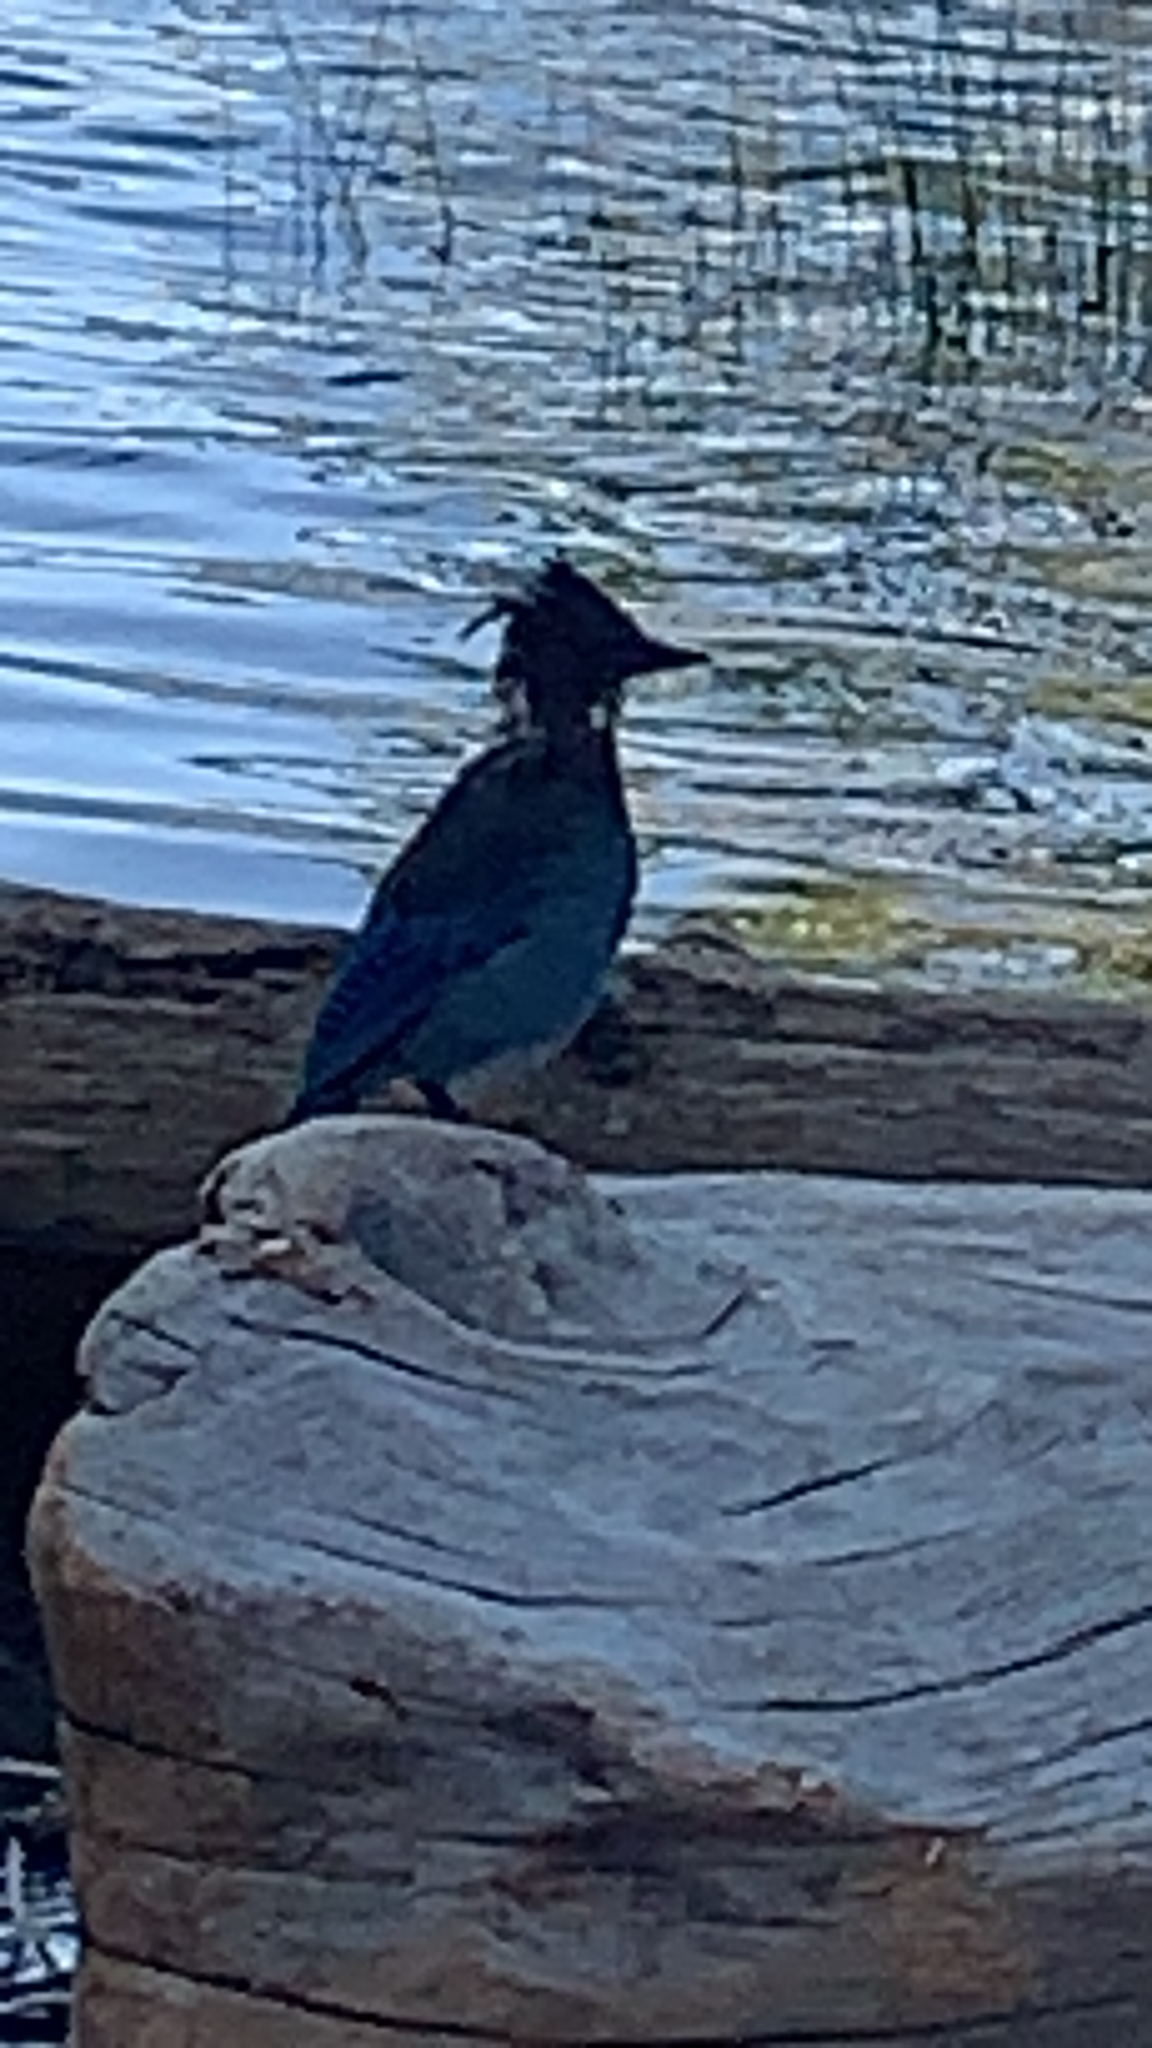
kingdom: Animalia
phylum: Chordata
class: Aves
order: Passeriformes
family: Corvidae
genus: Cyanocitta
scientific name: Cyanocitta stelleri
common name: Steller's jay
